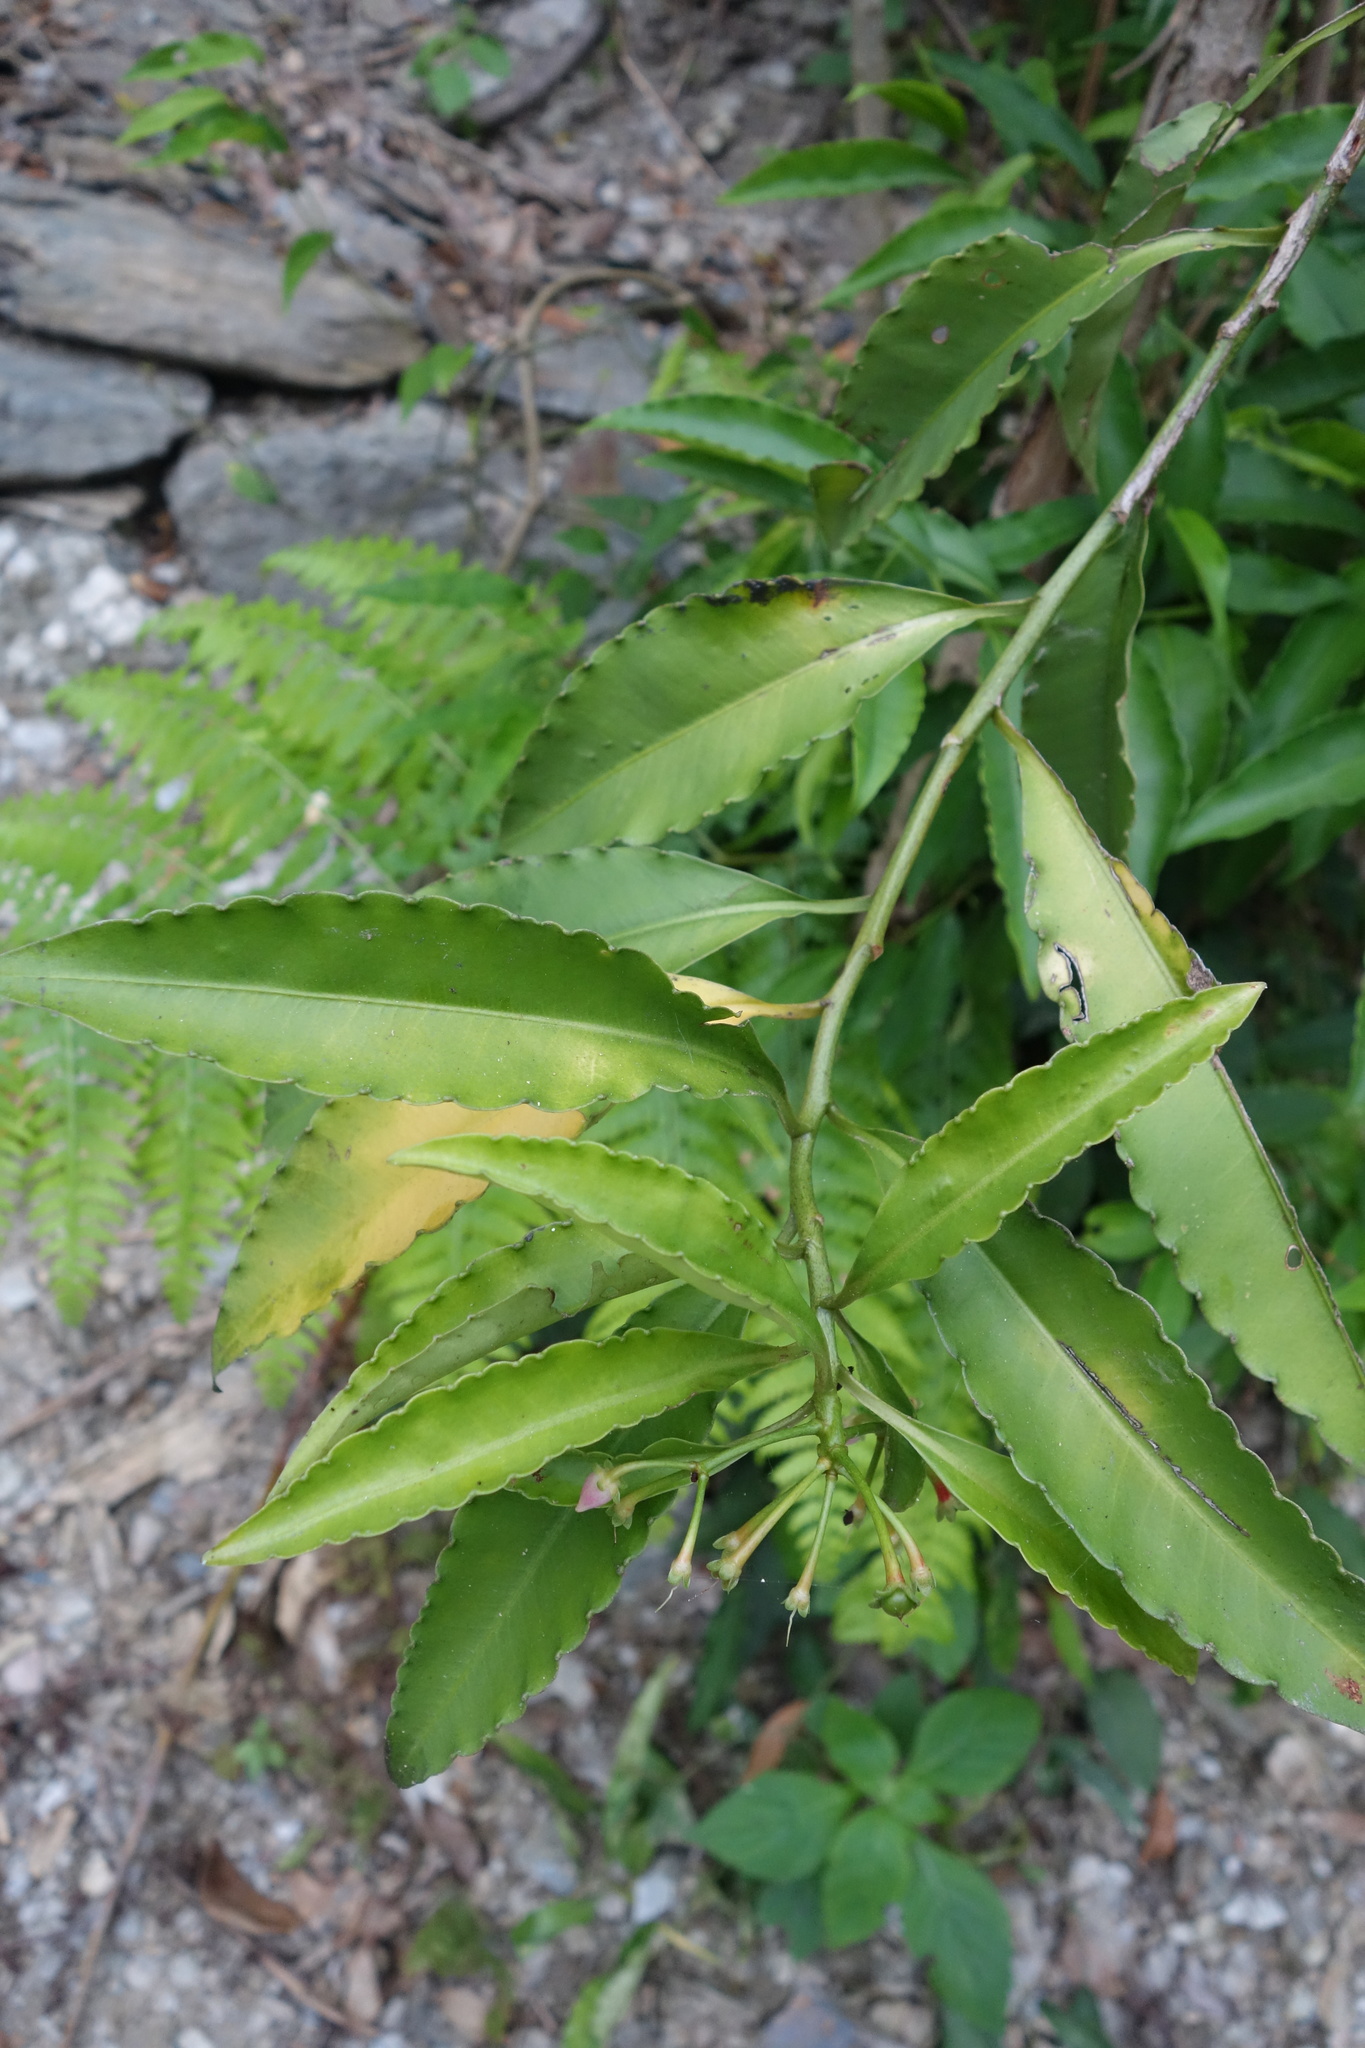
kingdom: Plantae
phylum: Tracheophyta
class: Magnoliopsida
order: Ericales
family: Primulaceae
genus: Ardisia
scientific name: Ardisia polysticta
